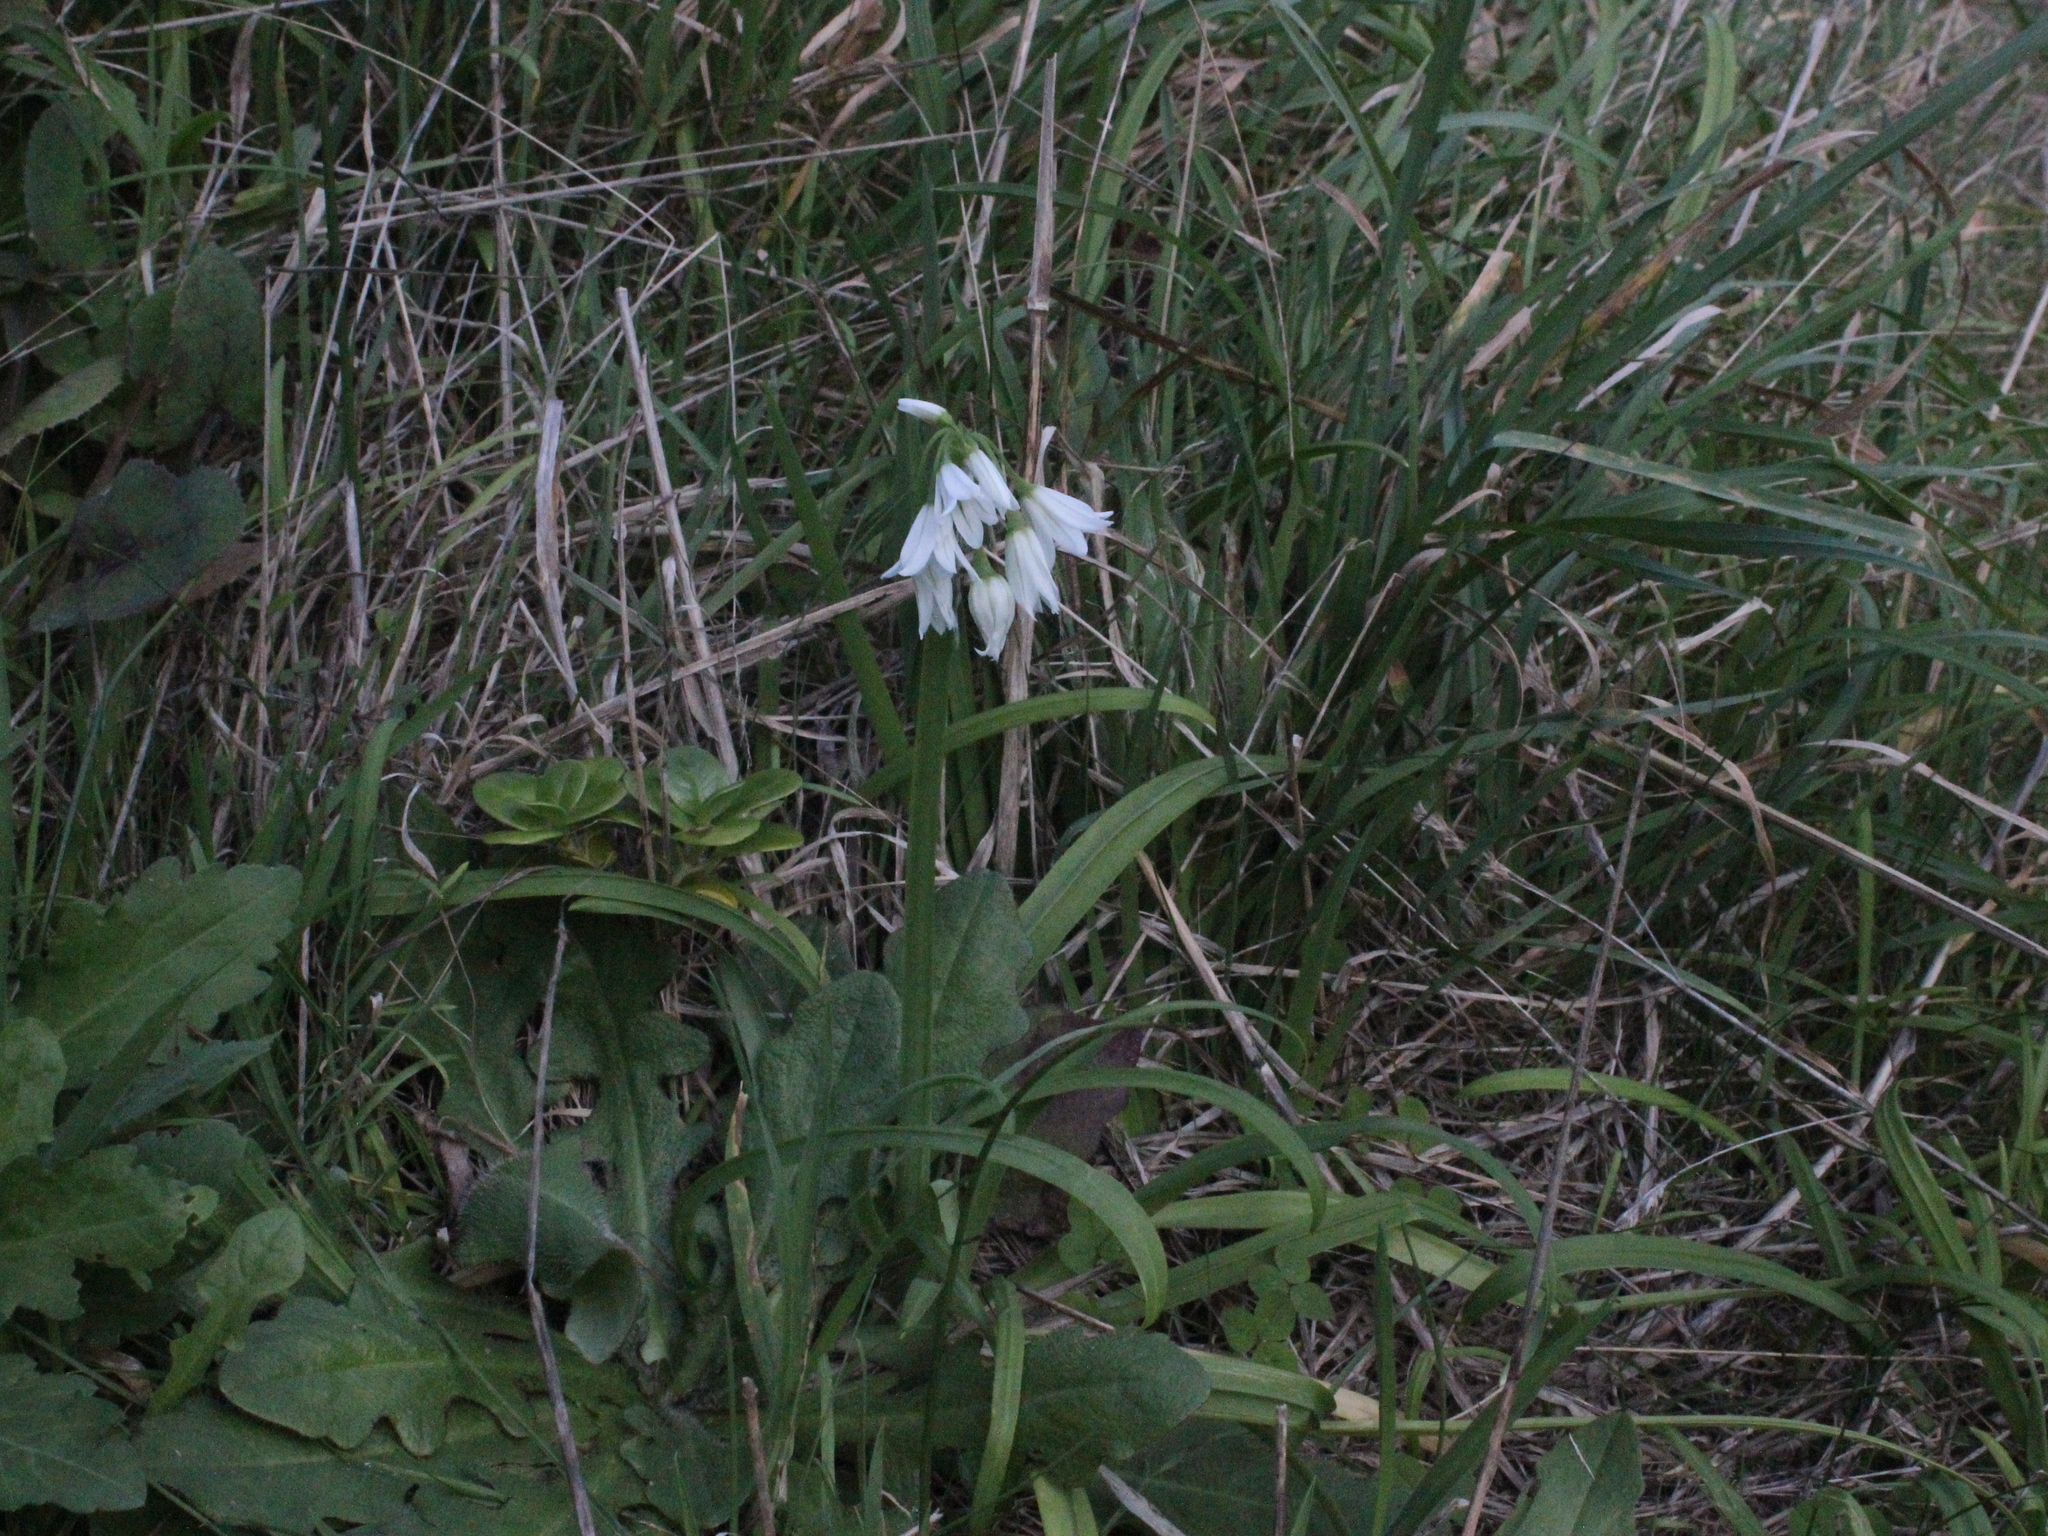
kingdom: Plantae
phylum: Tracheophyta
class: Liliopsida
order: Asparagales
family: Amaryllidaceae
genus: Allium
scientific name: Allium triquetrum
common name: Three-cornered garlic
